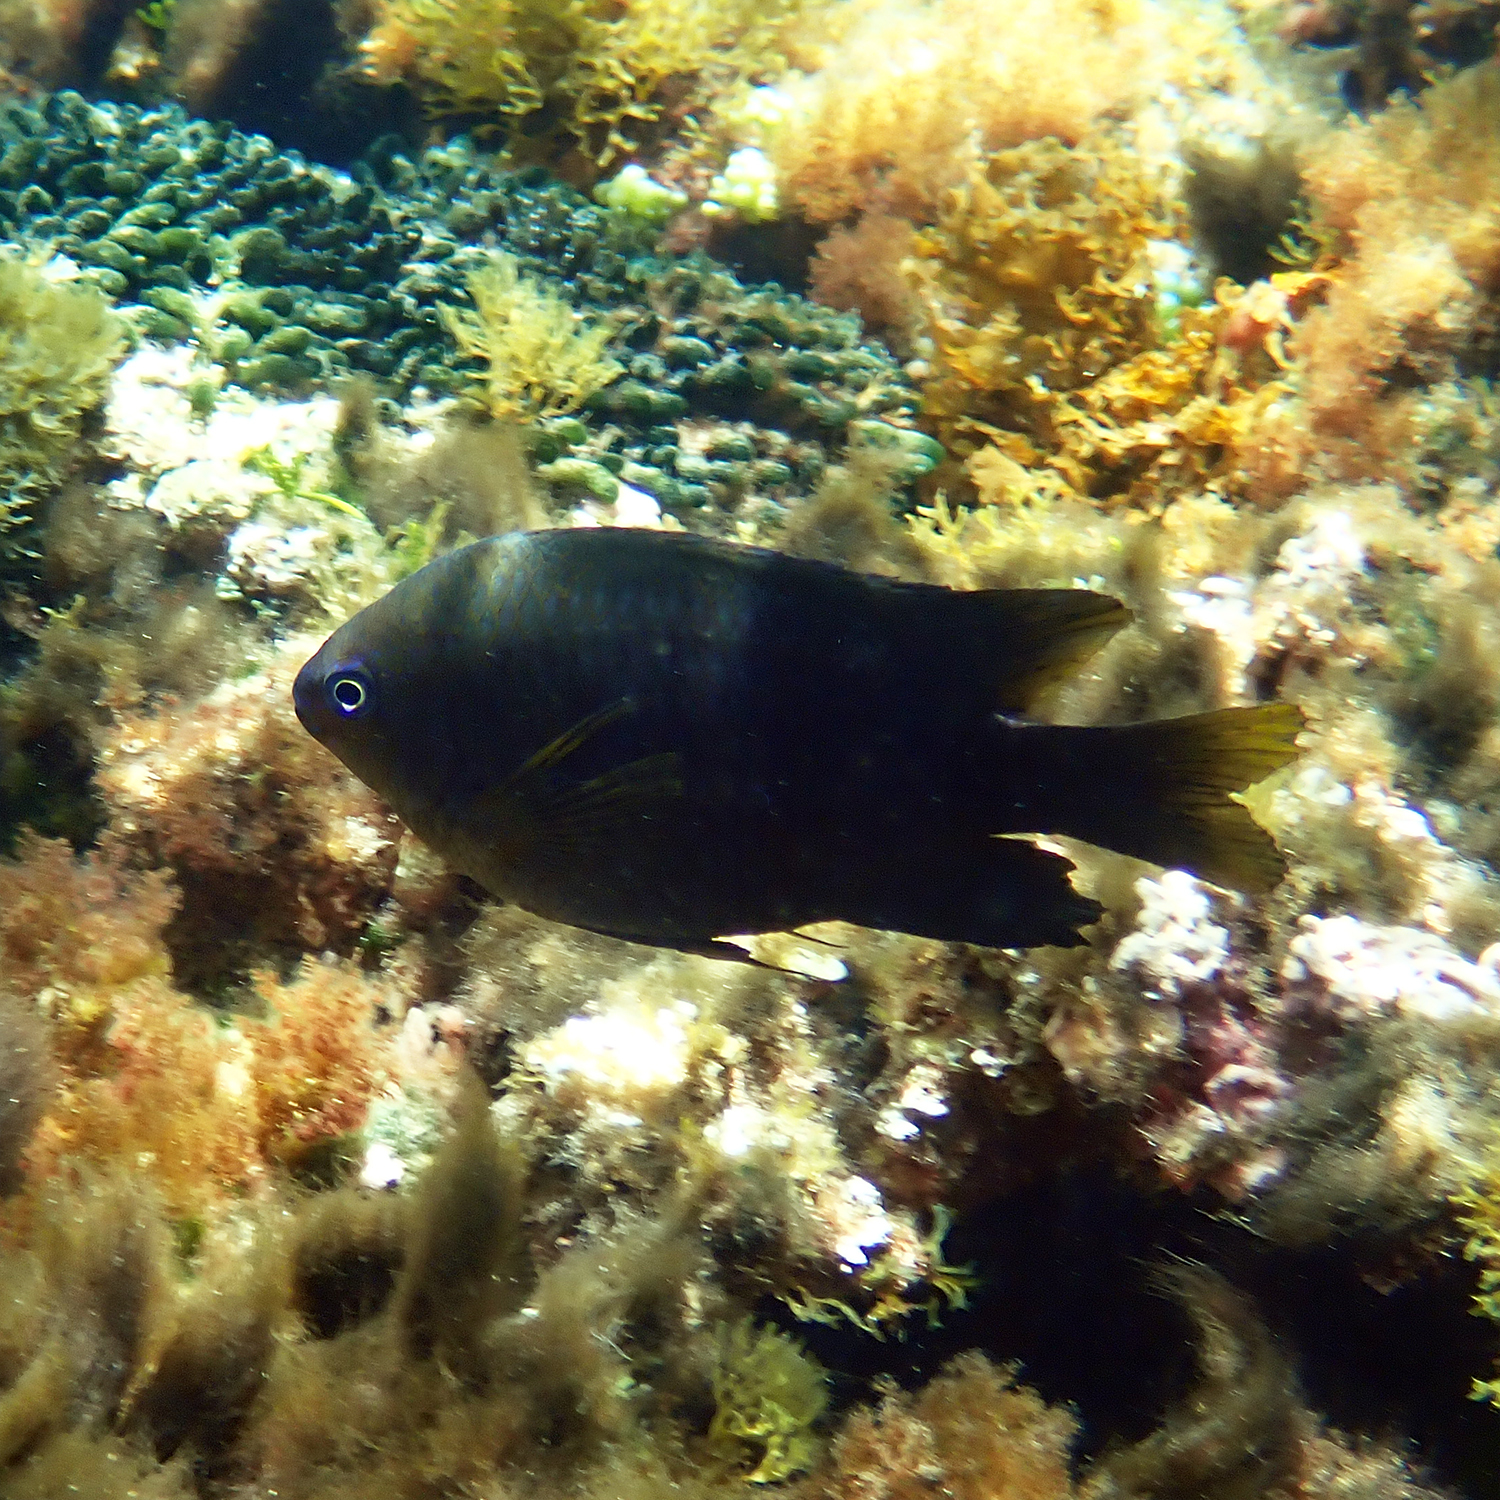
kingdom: Animalia
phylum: Chordata
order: Perciformes
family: Pomacentridae
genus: Neoglyphidodon
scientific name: Neoglyphidodon polyacanthus
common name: Multi-spined damsel
